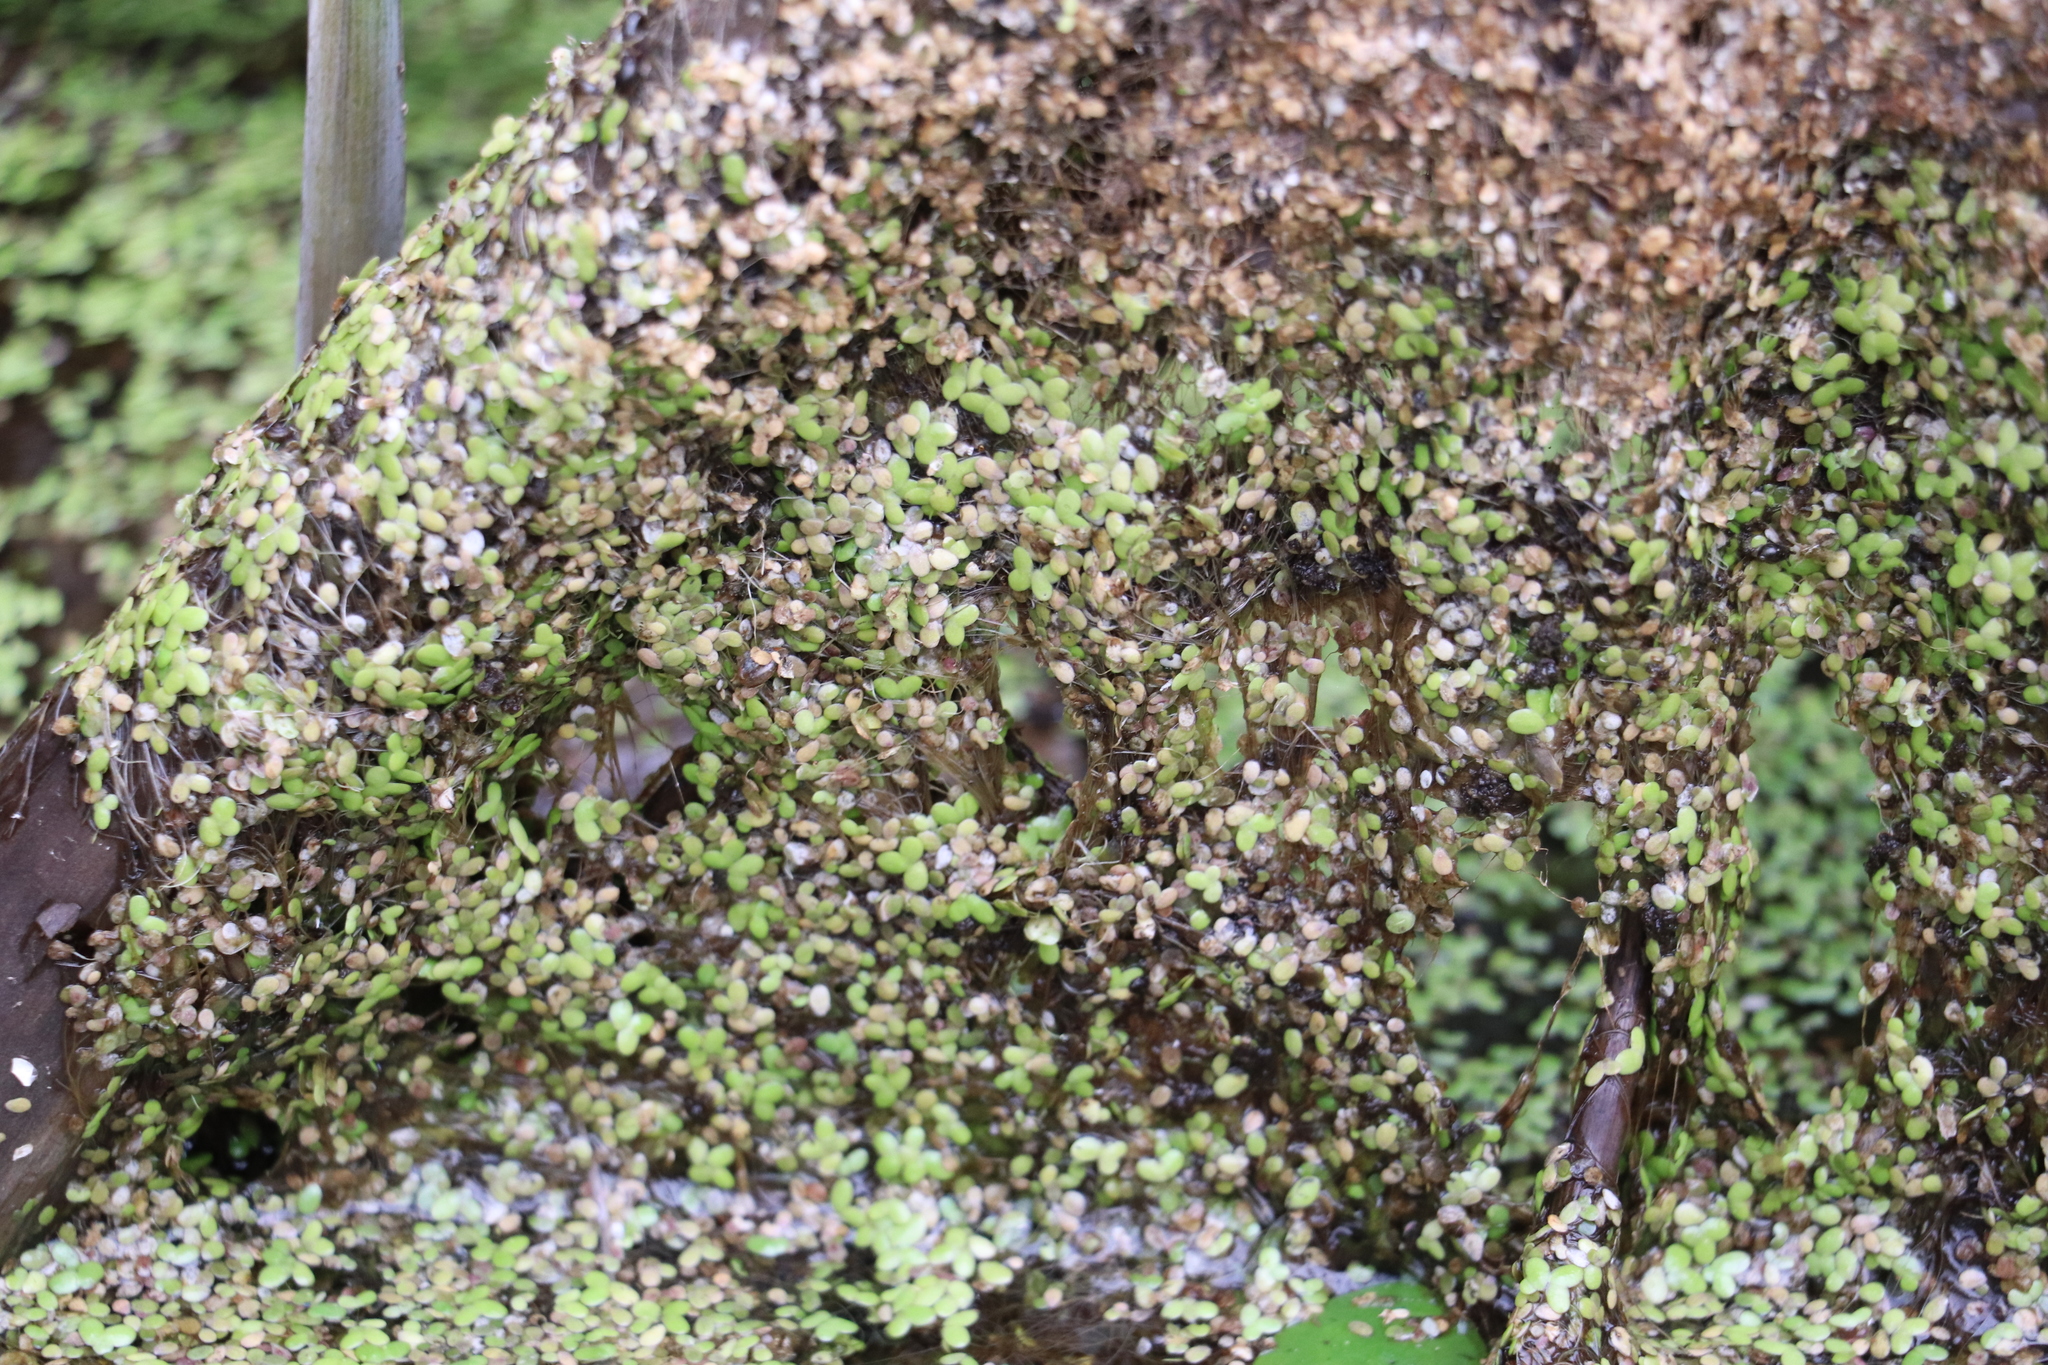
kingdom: Plantae
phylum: Tracheophyta
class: Liliopsida
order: Alismatales
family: Araceae
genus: Lemna
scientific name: Lemna minor
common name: Common duckweed
